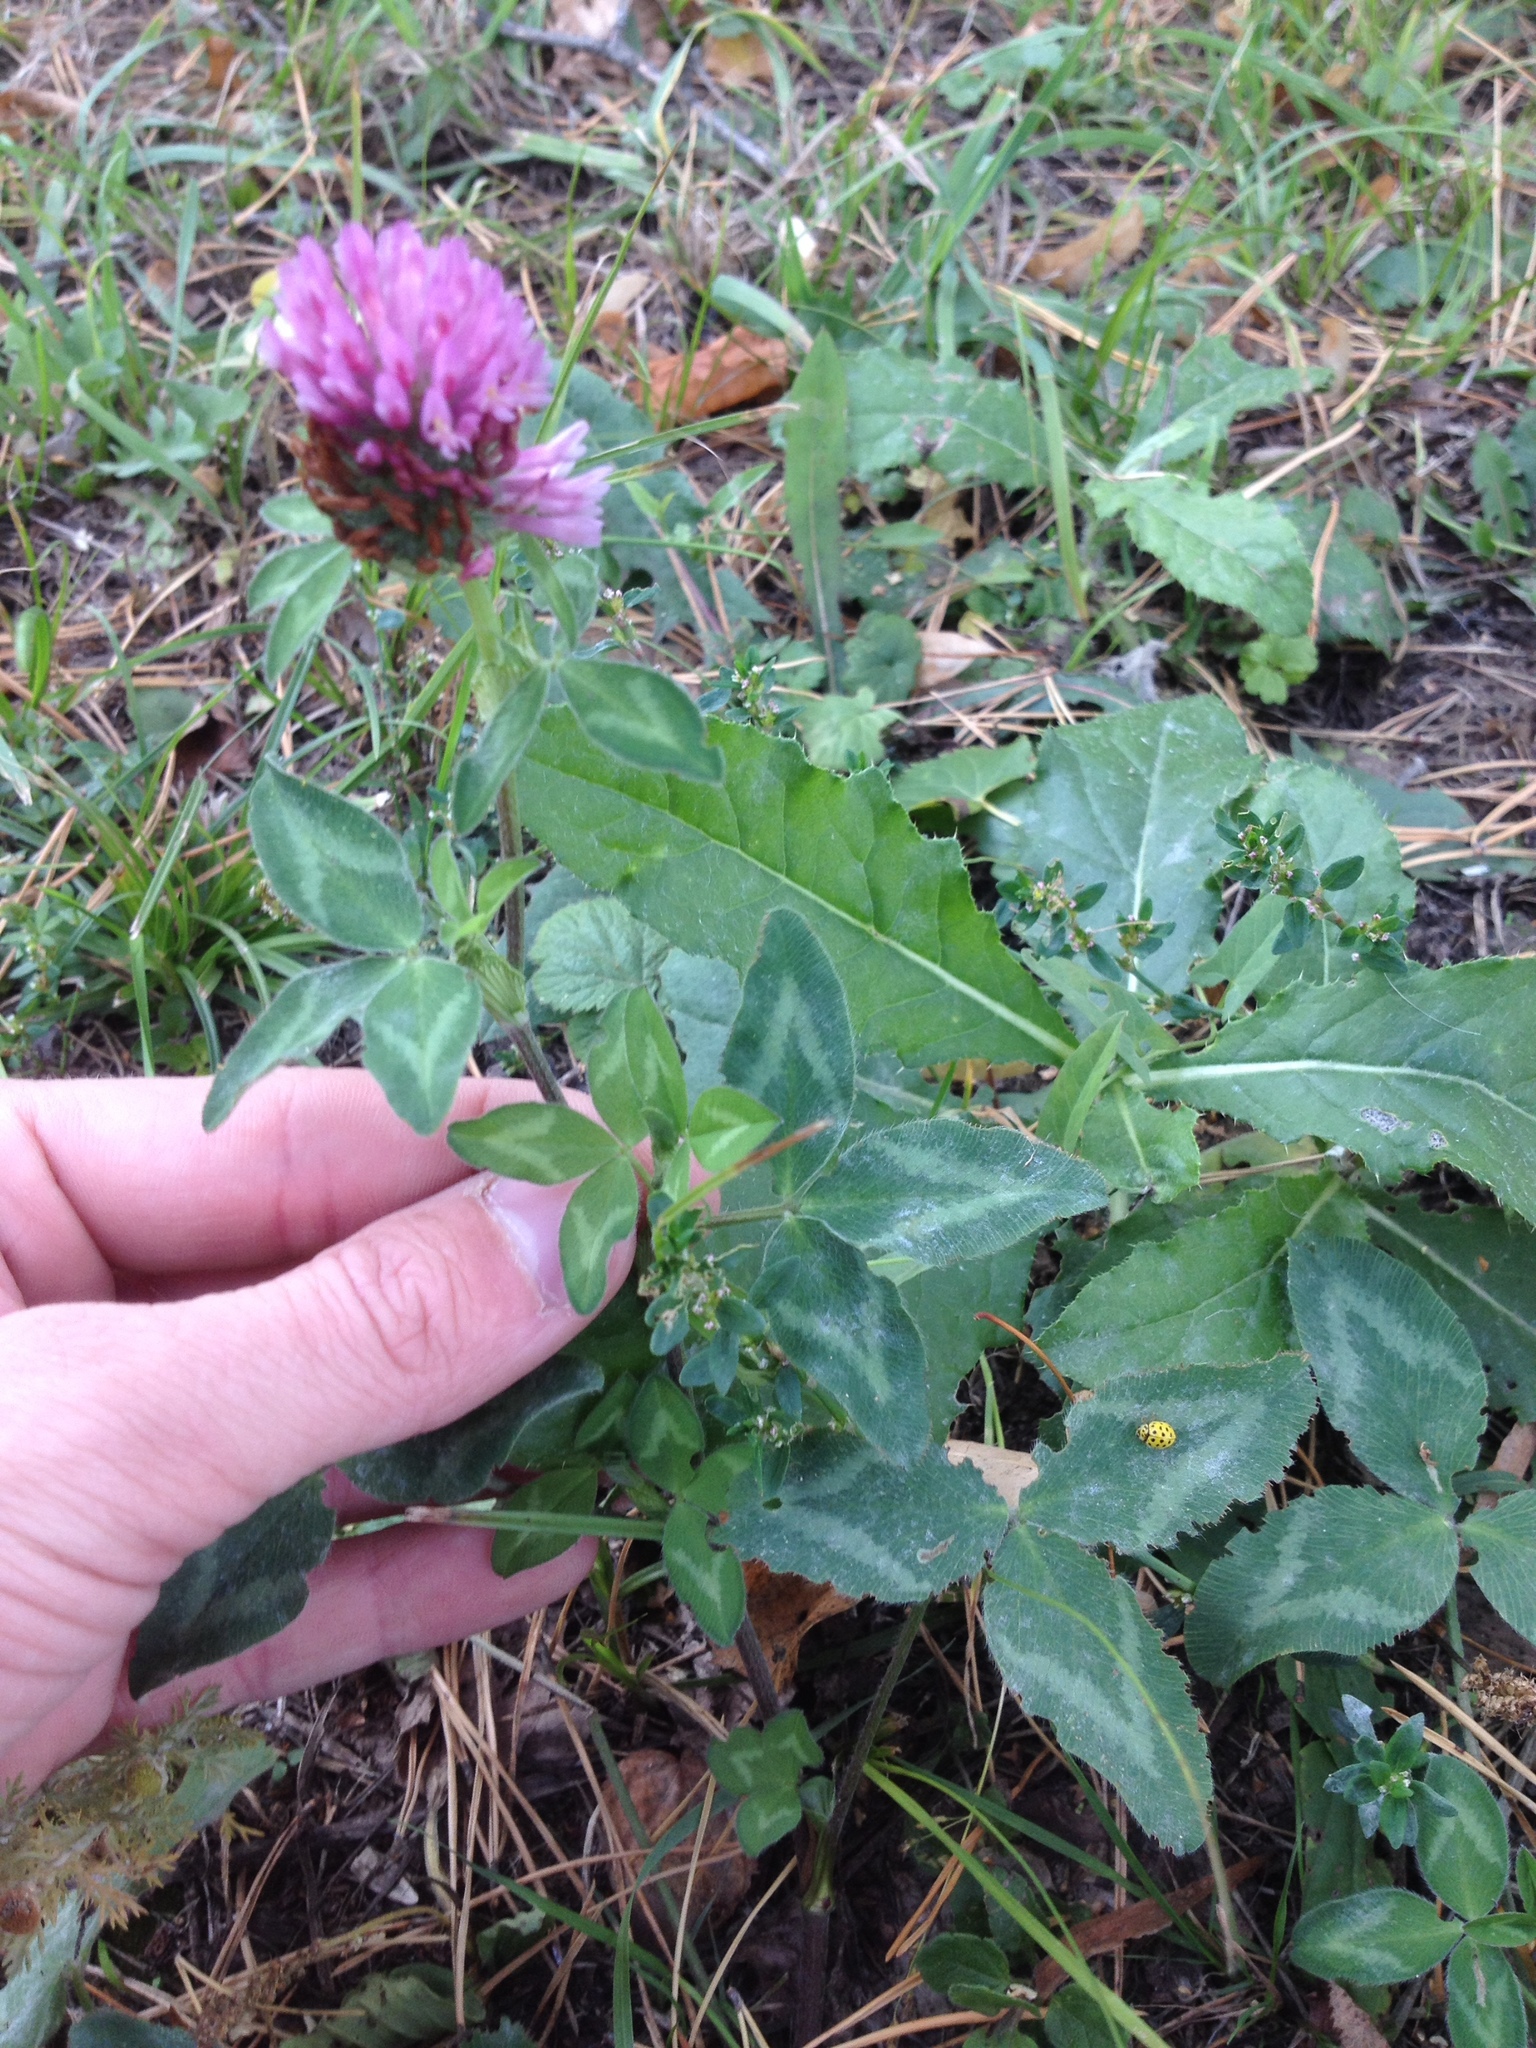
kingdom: Plantae
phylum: Tracheophyta
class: Magnoliopsida
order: Fabales
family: Fabaceae
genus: Trifolium
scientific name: Trifolium pratense
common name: Red clover
